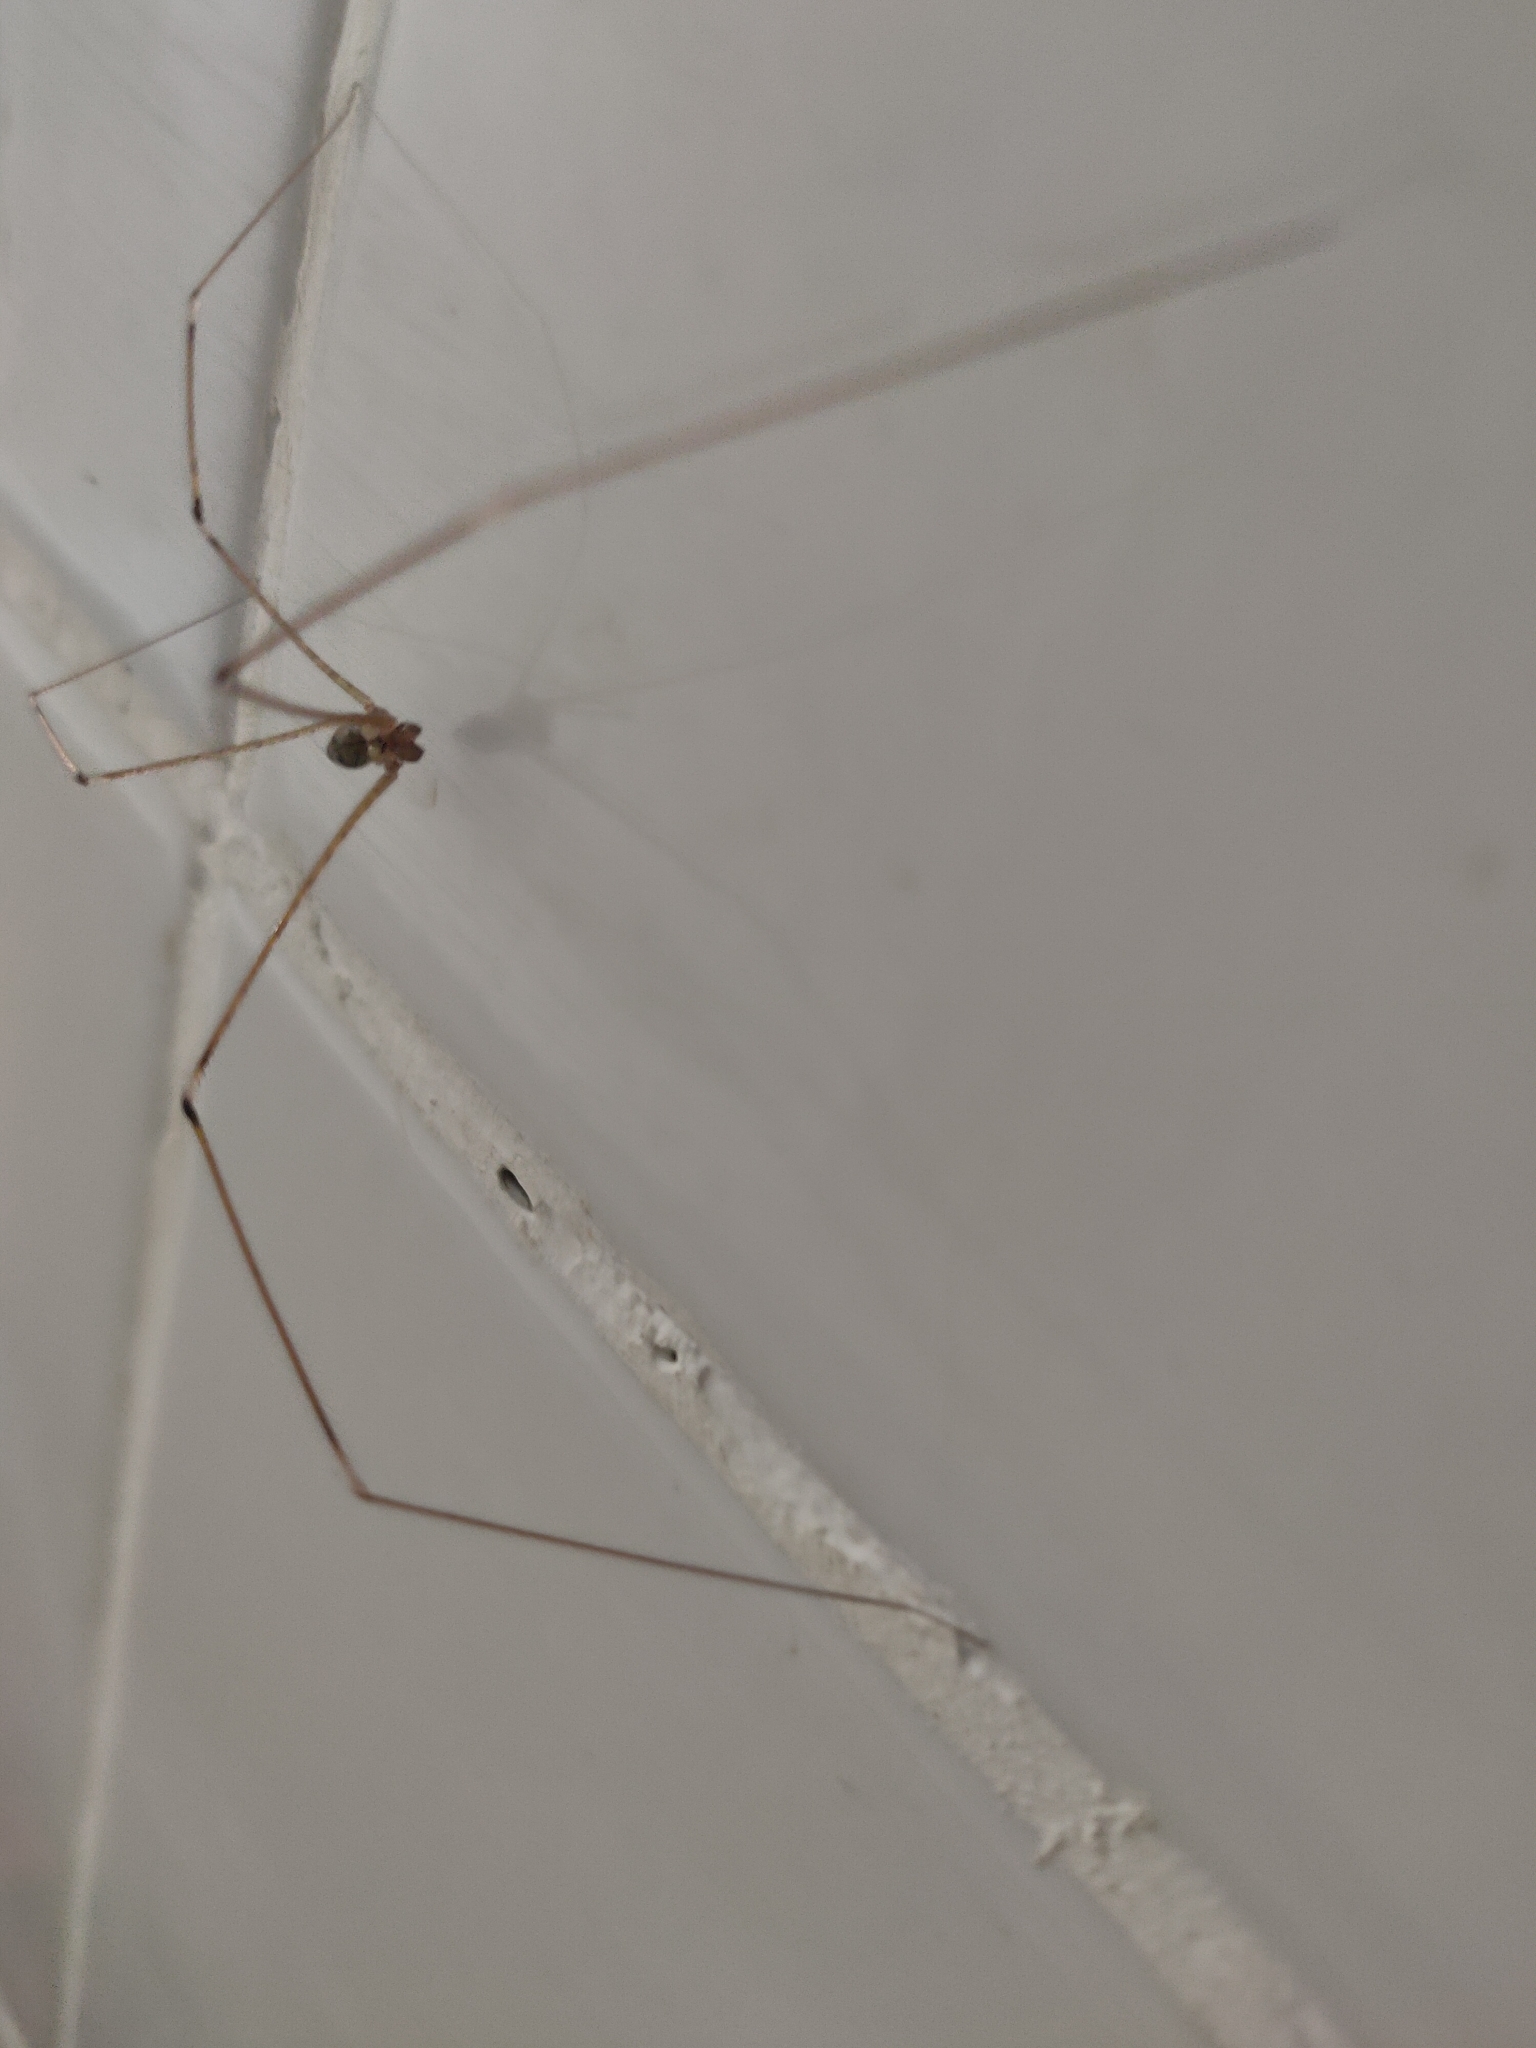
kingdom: Animalia
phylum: Arthropoda
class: Arachnida
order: Araneae
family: Pholcidae
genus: Crossopriza
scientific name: Crossopriza lyoni
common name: Cellar spiders
